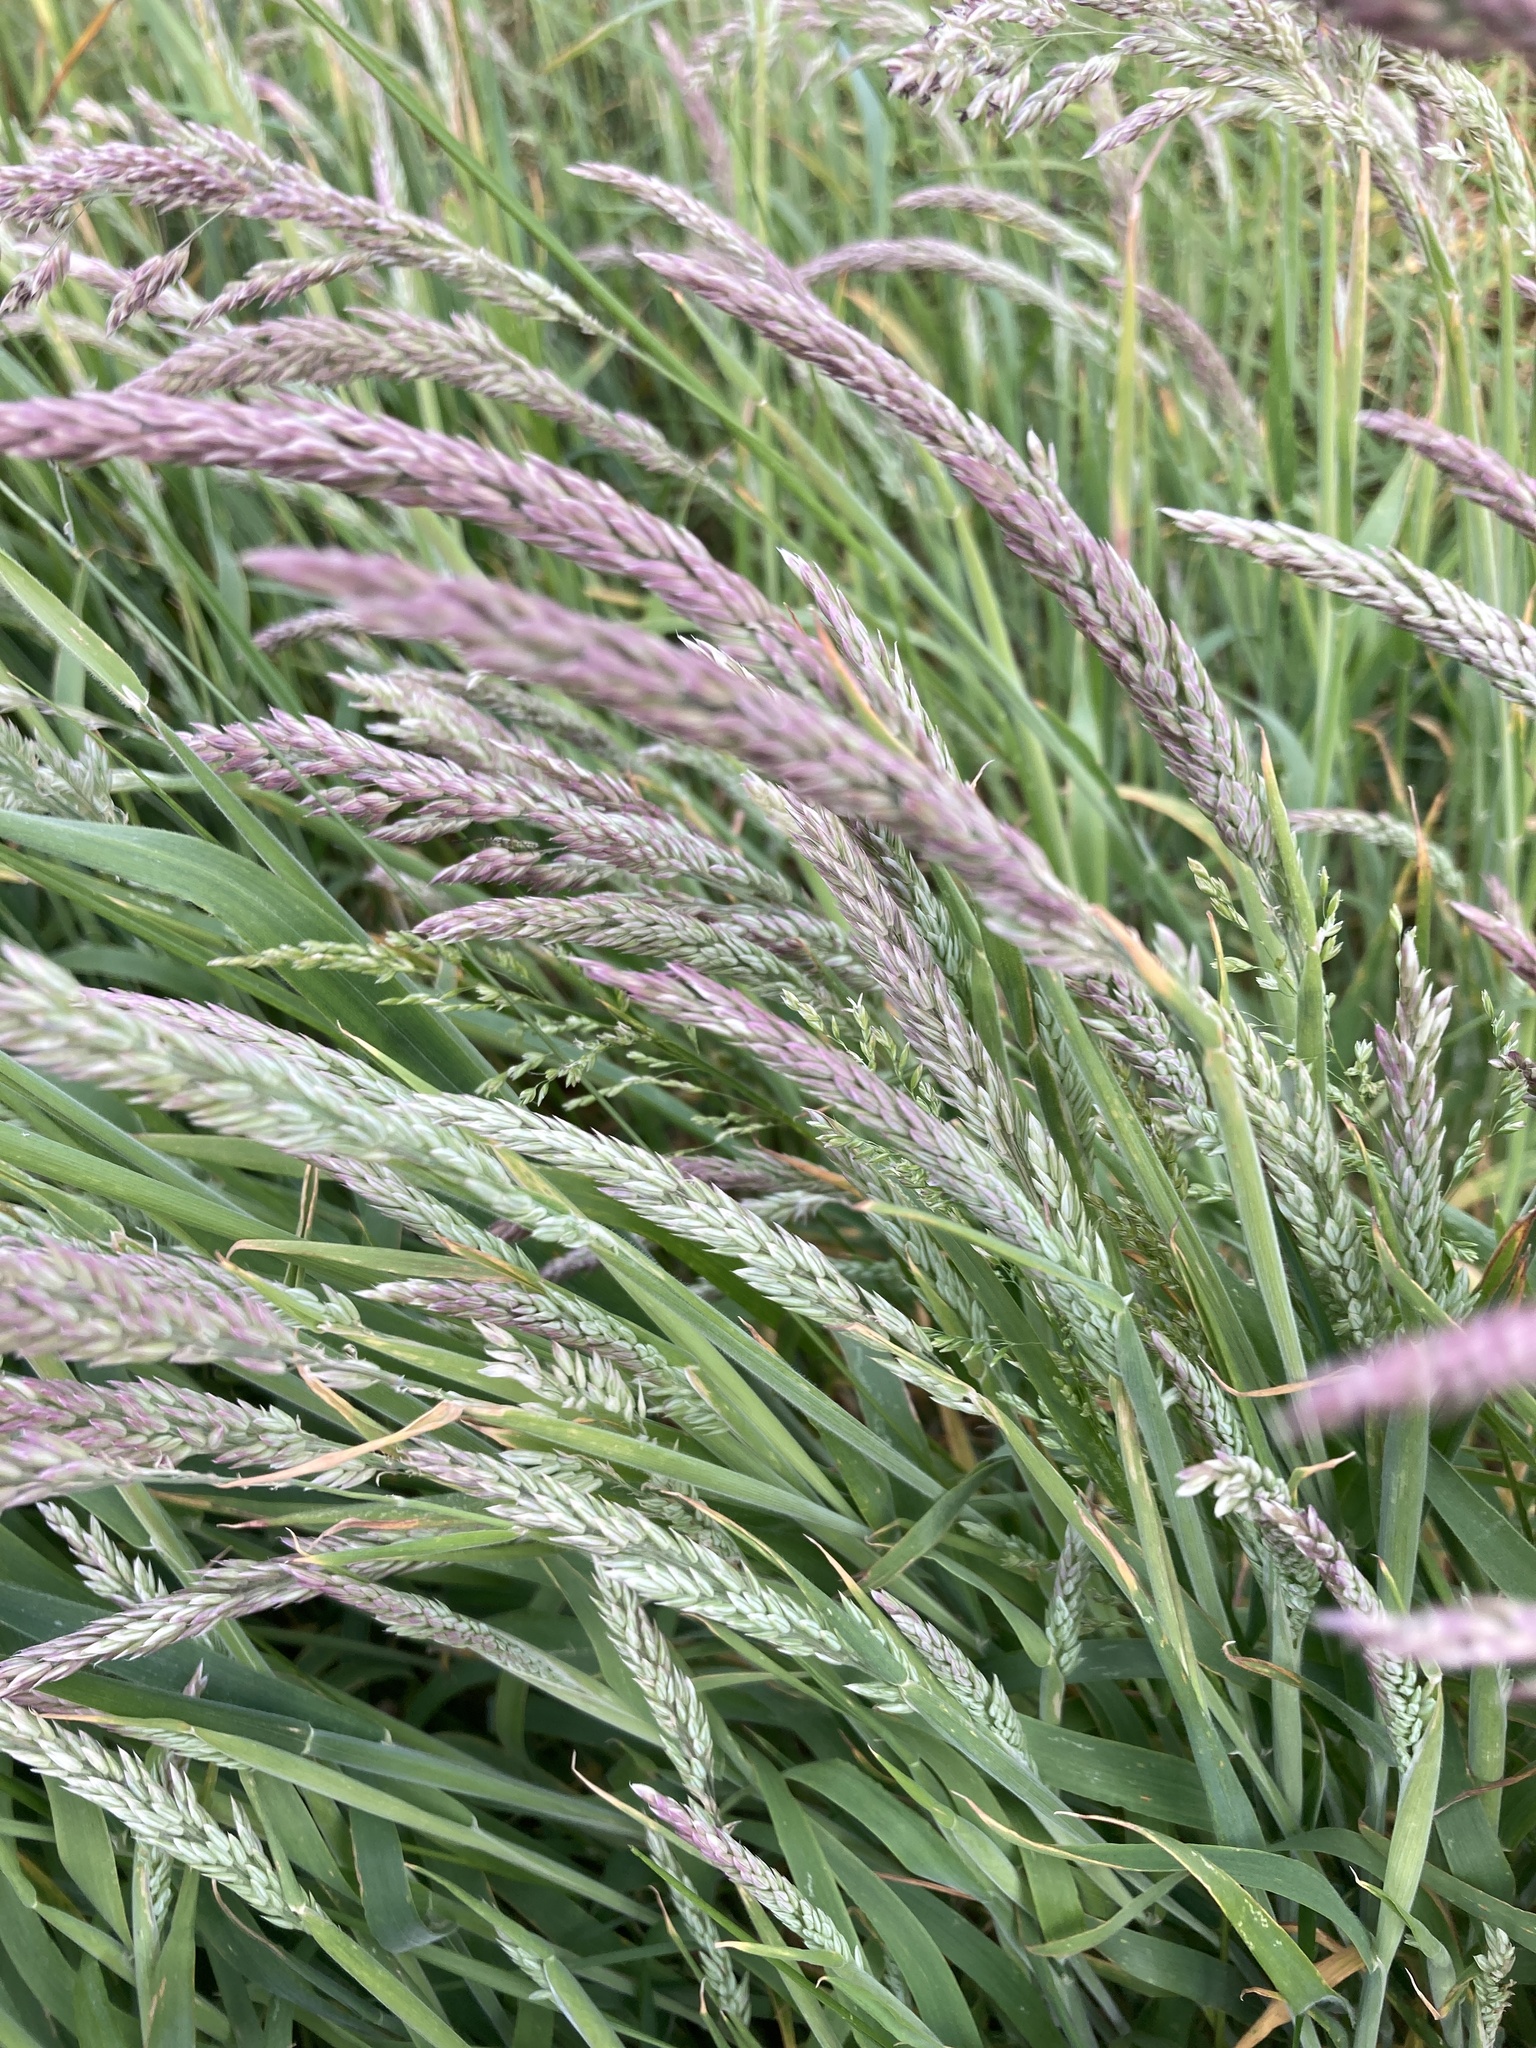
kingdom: Plantae
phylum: Tracheophyta
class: Liliopsida
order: Poales
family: Poaceae
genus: Holcus
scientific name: Holcus lanatus
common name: Yorkshire-fog
